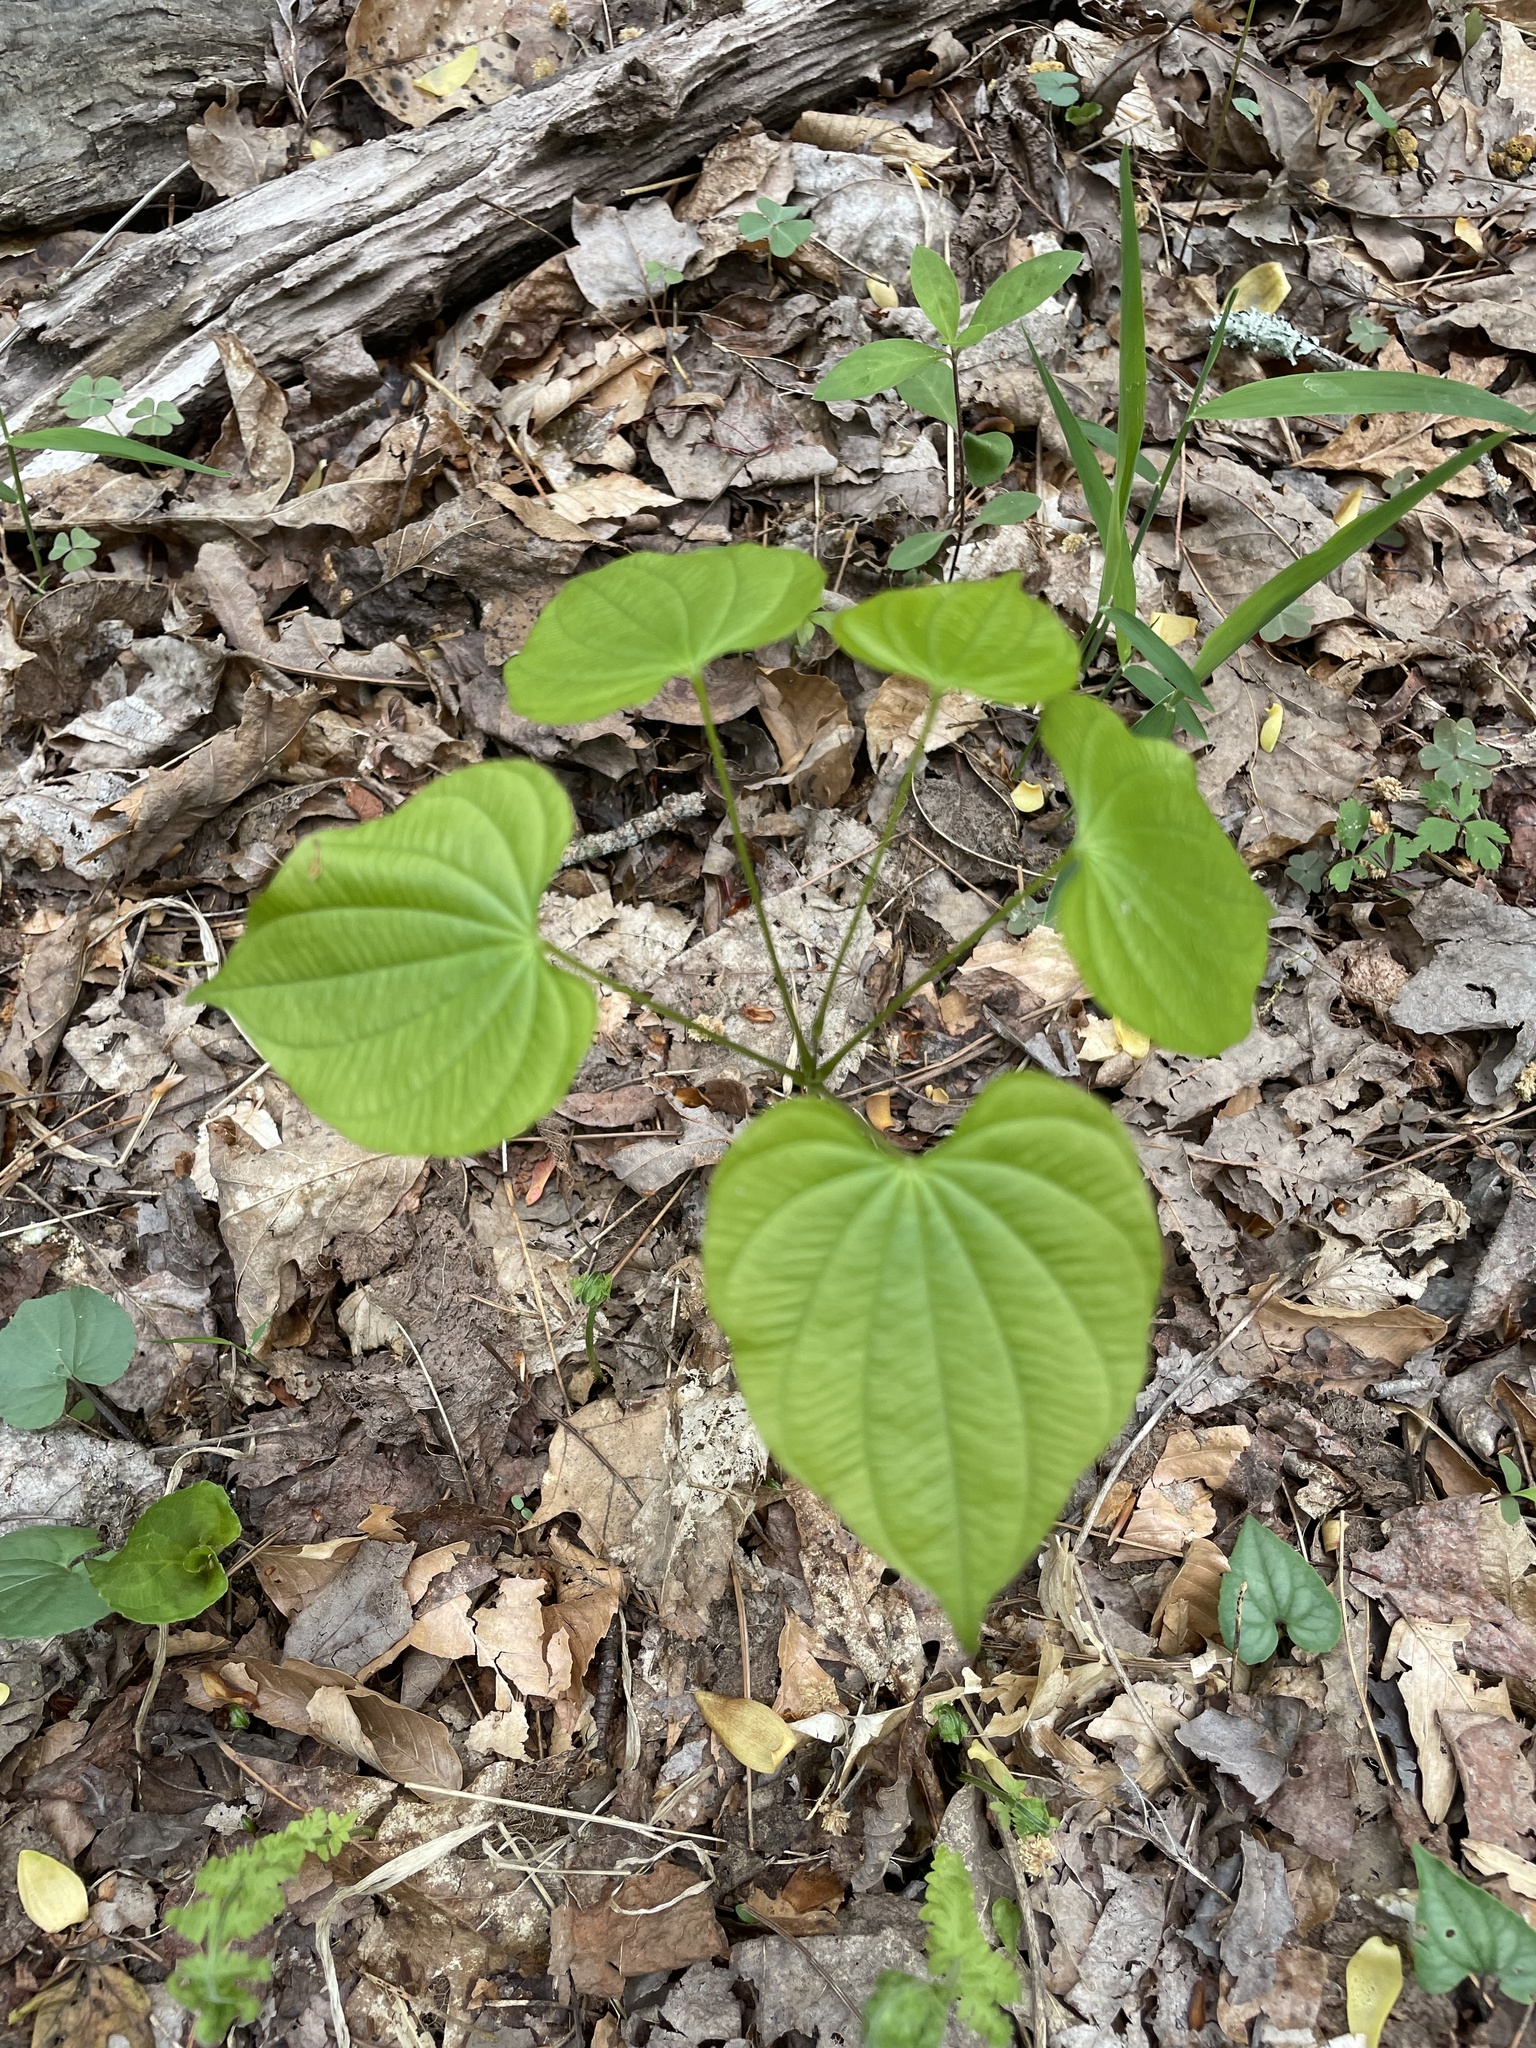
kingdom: Plantae
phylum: Tracheophyta
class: Liliopsida
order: Dioscoreales
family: Dioscoreaceae
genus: Dioscorea
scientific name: Dioscorea villosa
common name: Wild yam
